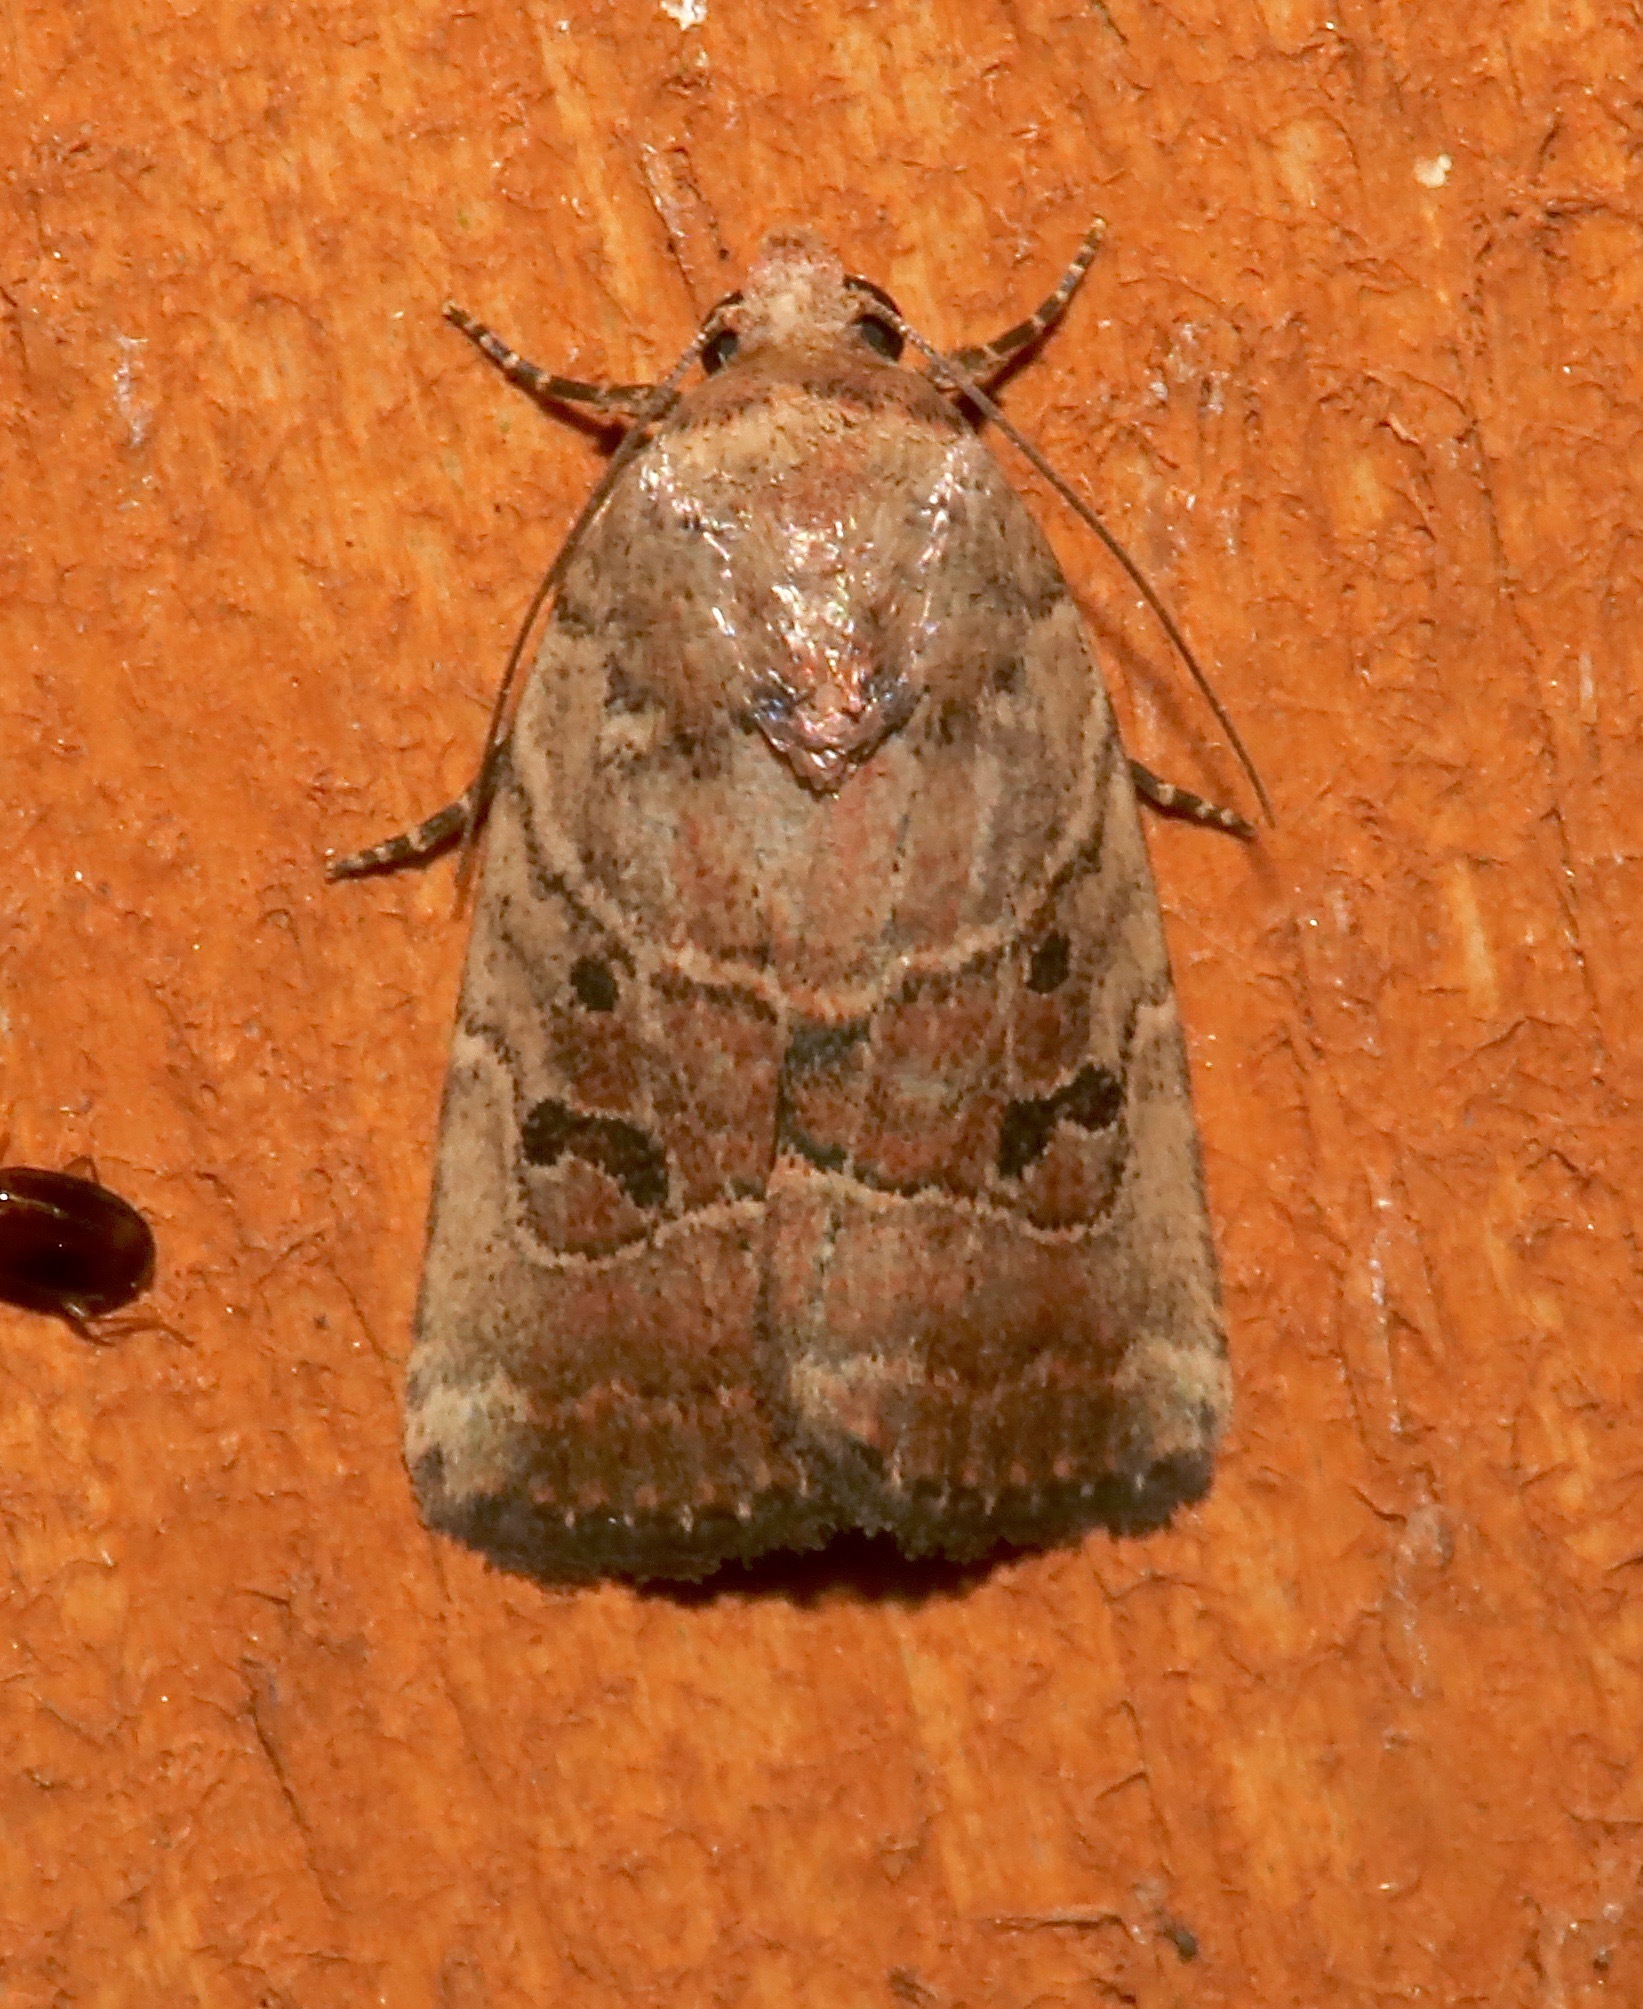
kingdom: Animalia
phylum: Arthropoda
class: Insecta
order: Lepidoptera
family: Noctuidae
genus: Elaphria
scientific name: Elaphria fuscimacula
